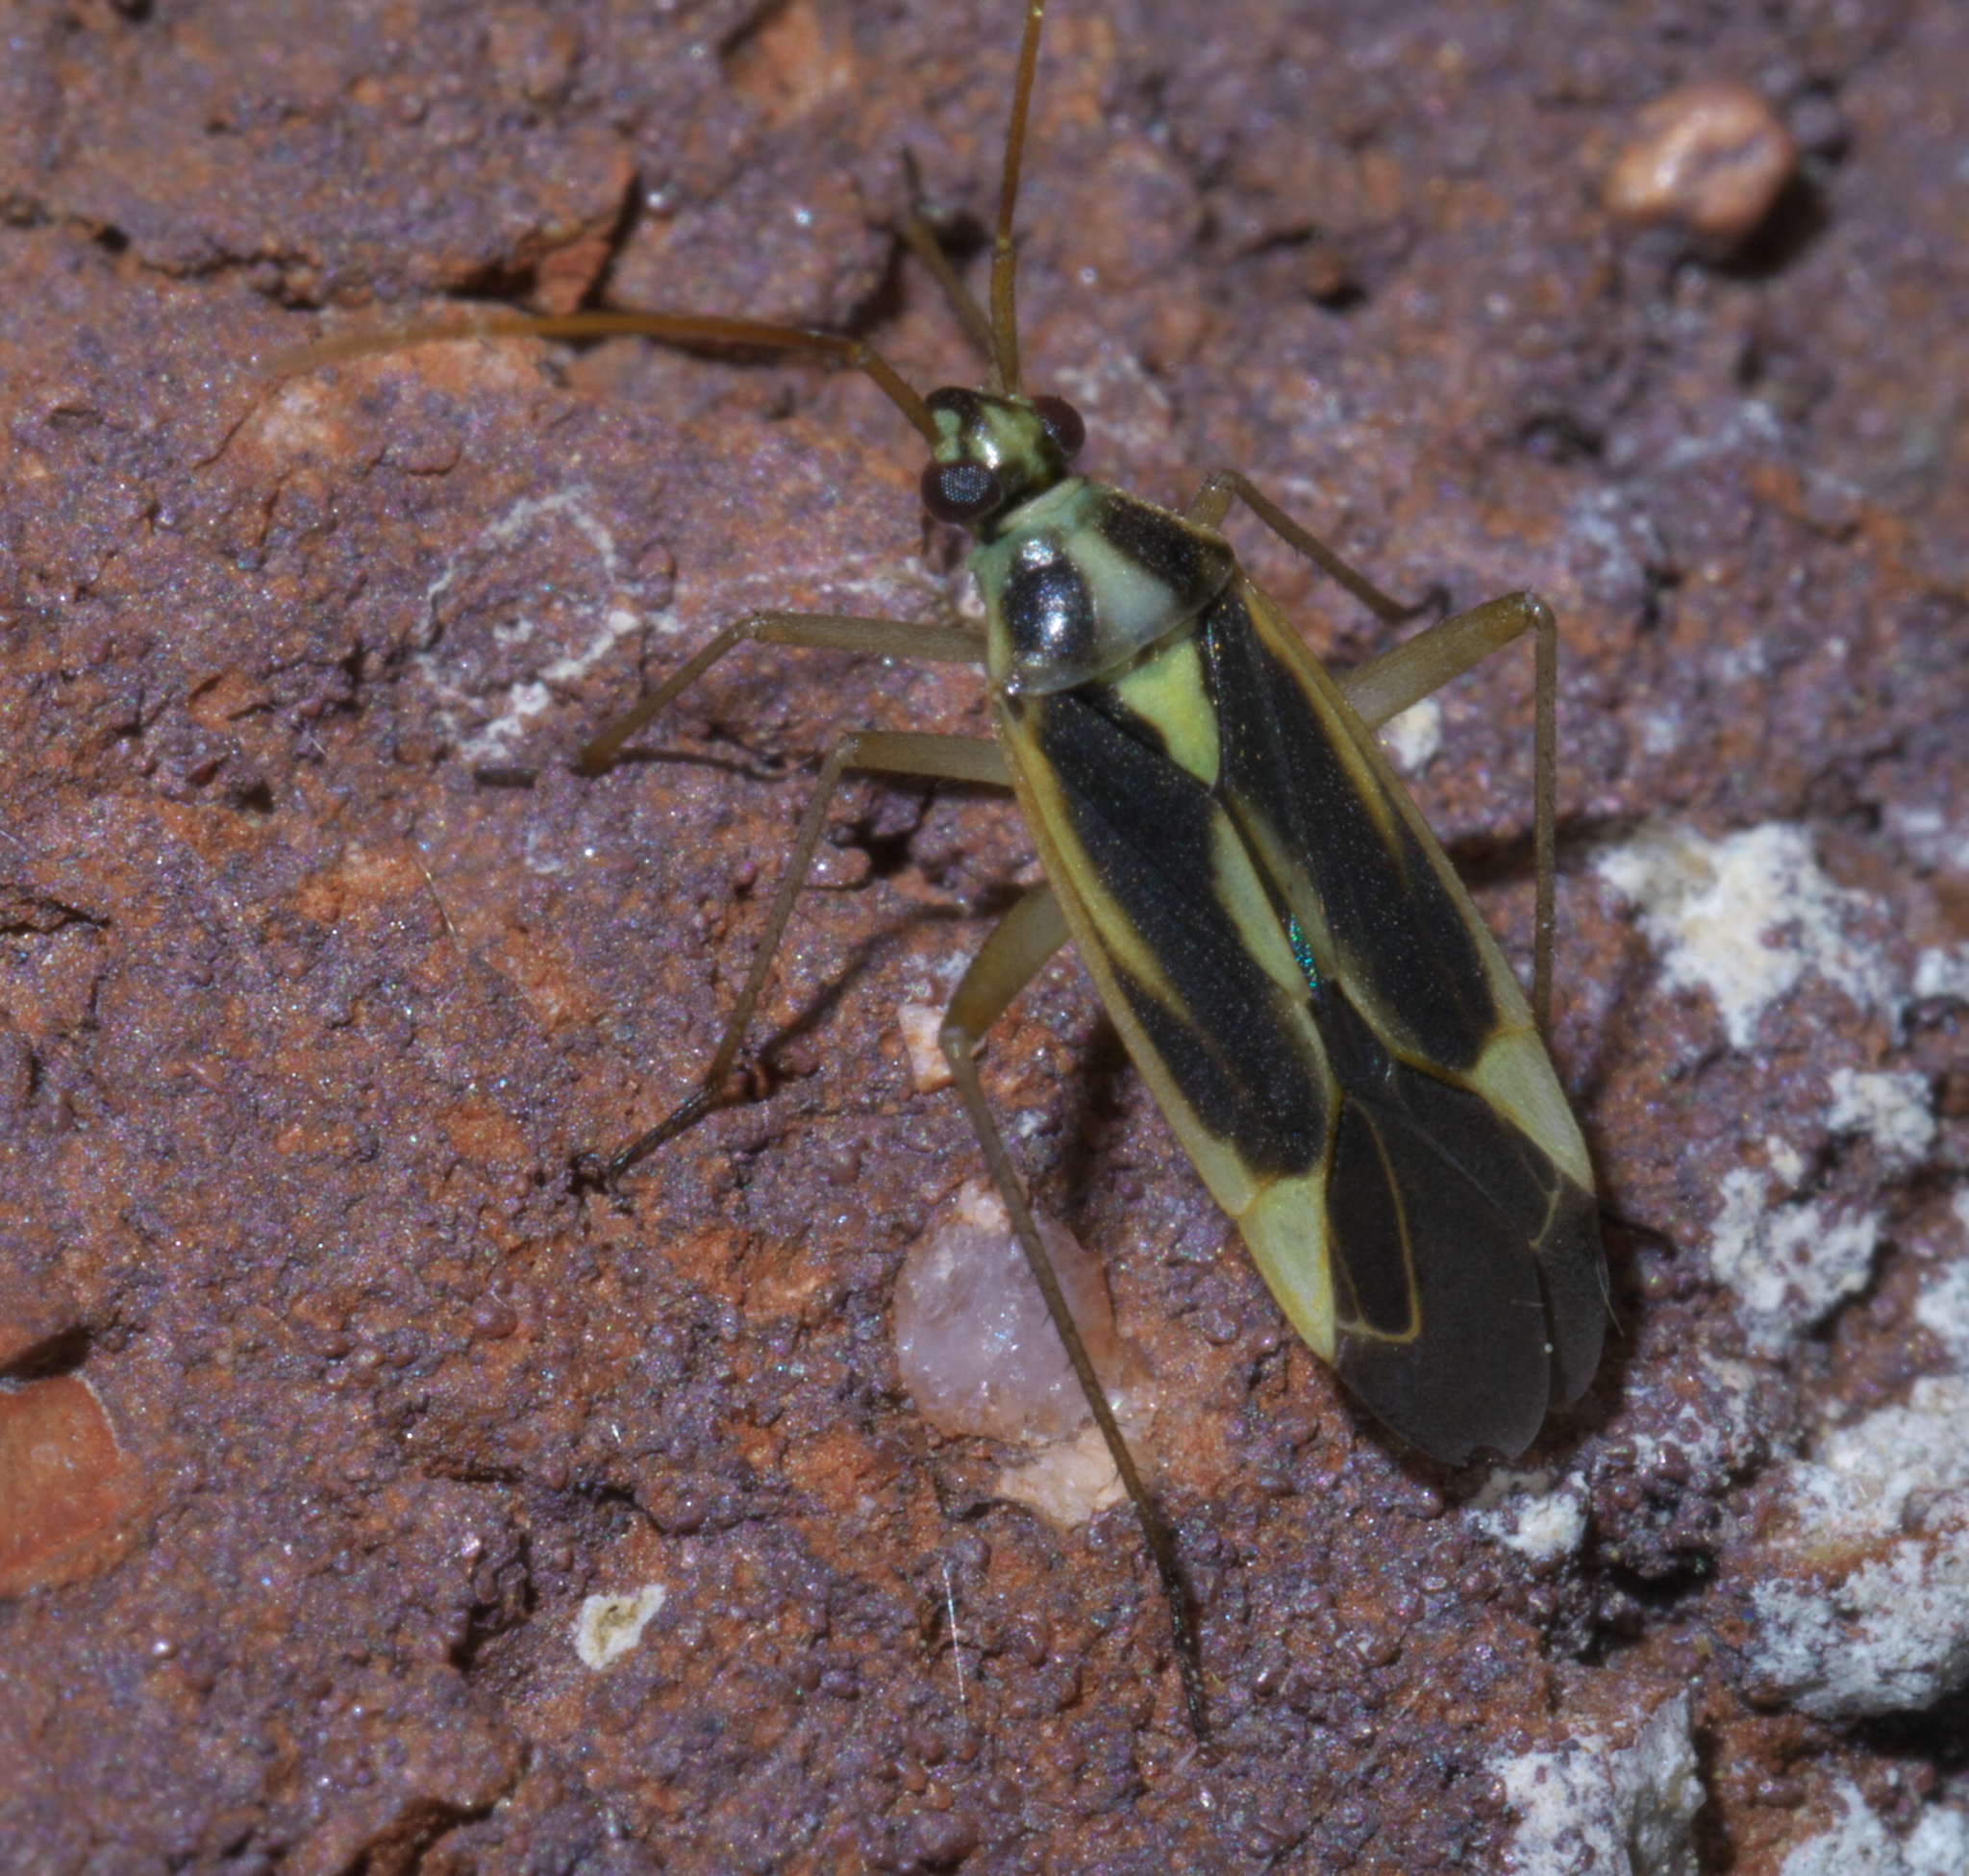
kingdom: Animalia
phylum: Arthropoda
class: Insecta
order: Hemiptera
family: Miridae
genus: Stenotus
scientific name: Stenotus binotatus
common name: Plant bug
